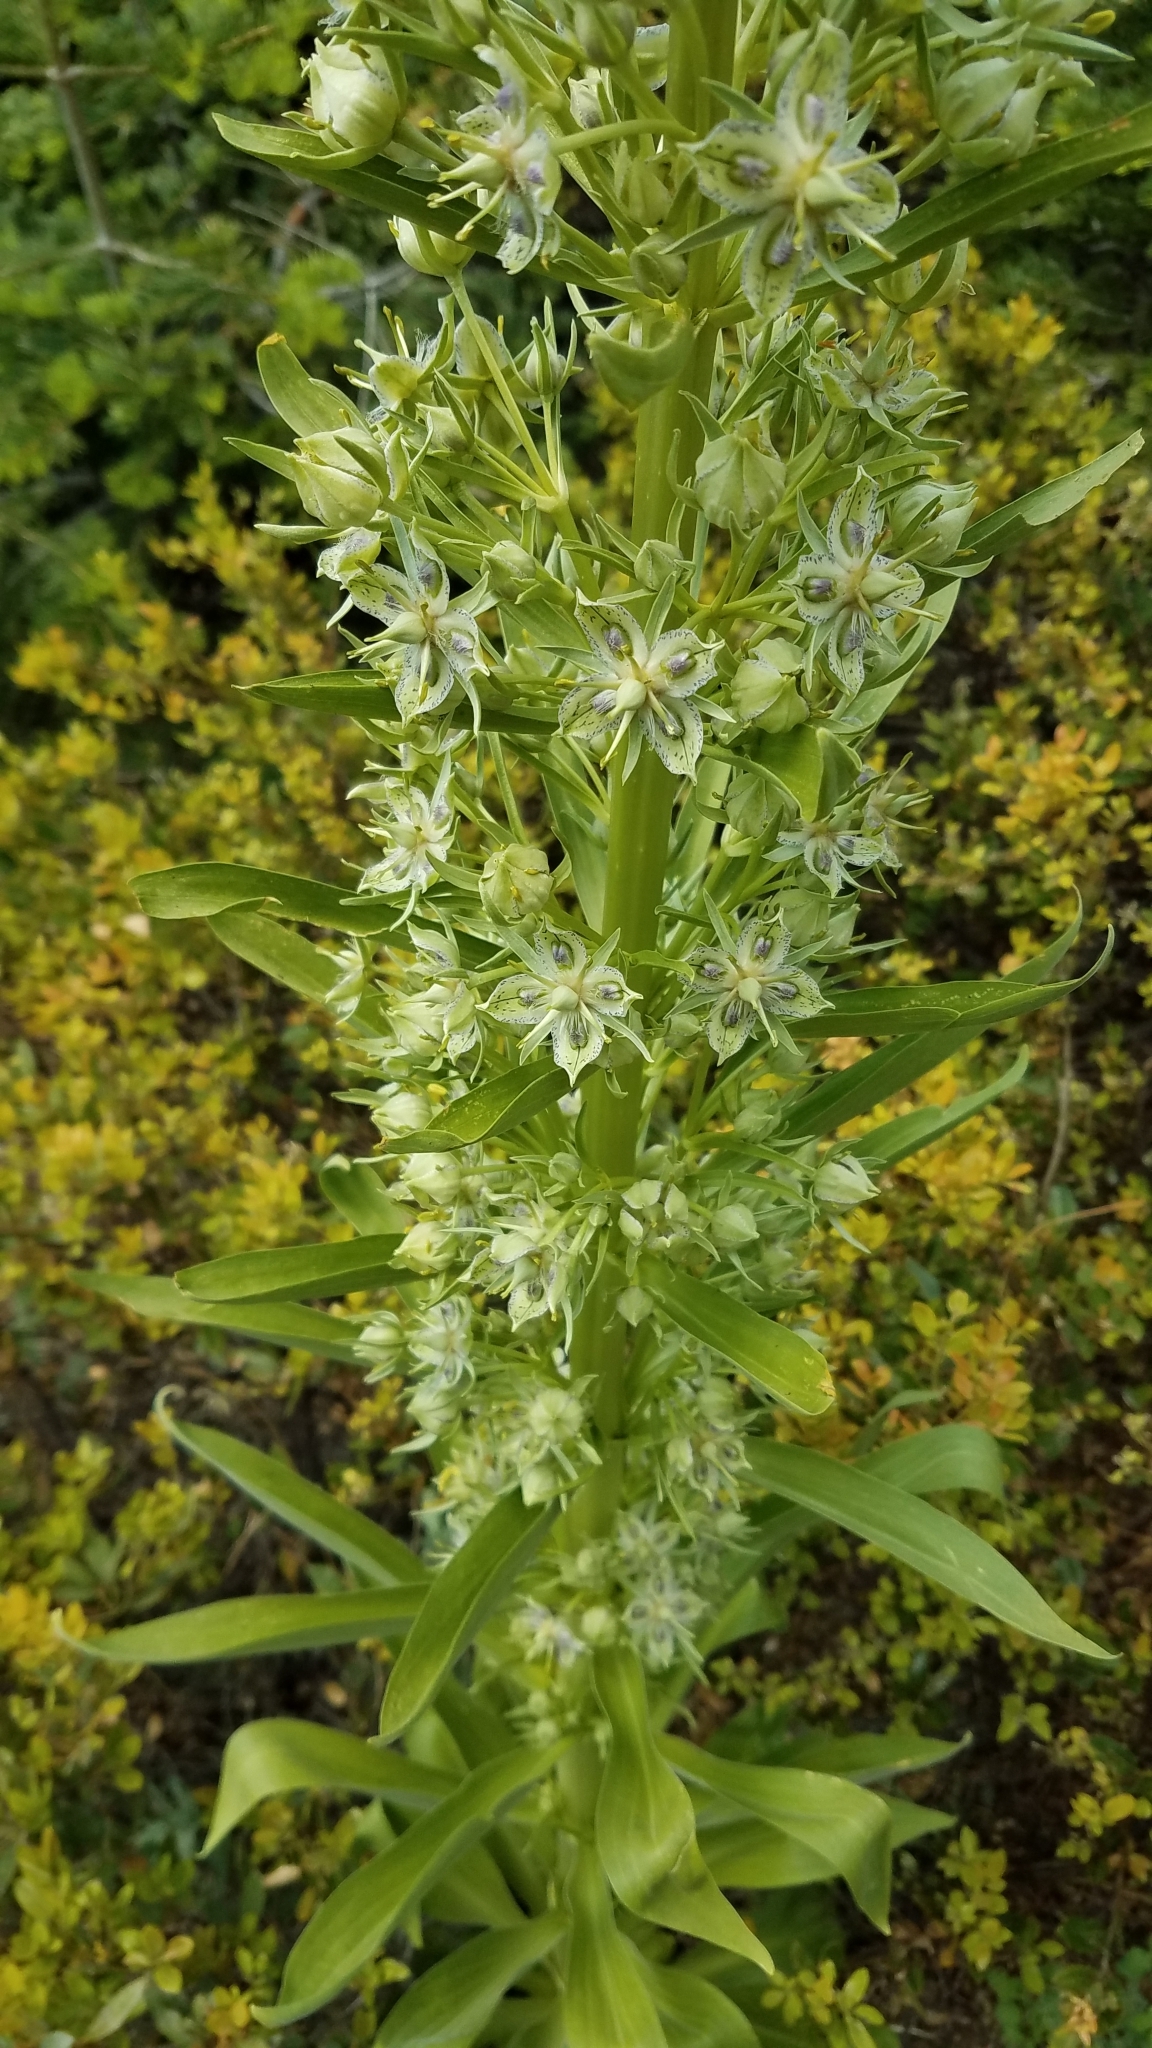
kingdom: Plantae
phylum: Tracheophyta
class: Magnoliopsida
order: Gentianales
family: Gentianaceae
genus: Frasera
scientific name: Frasera speciosa
